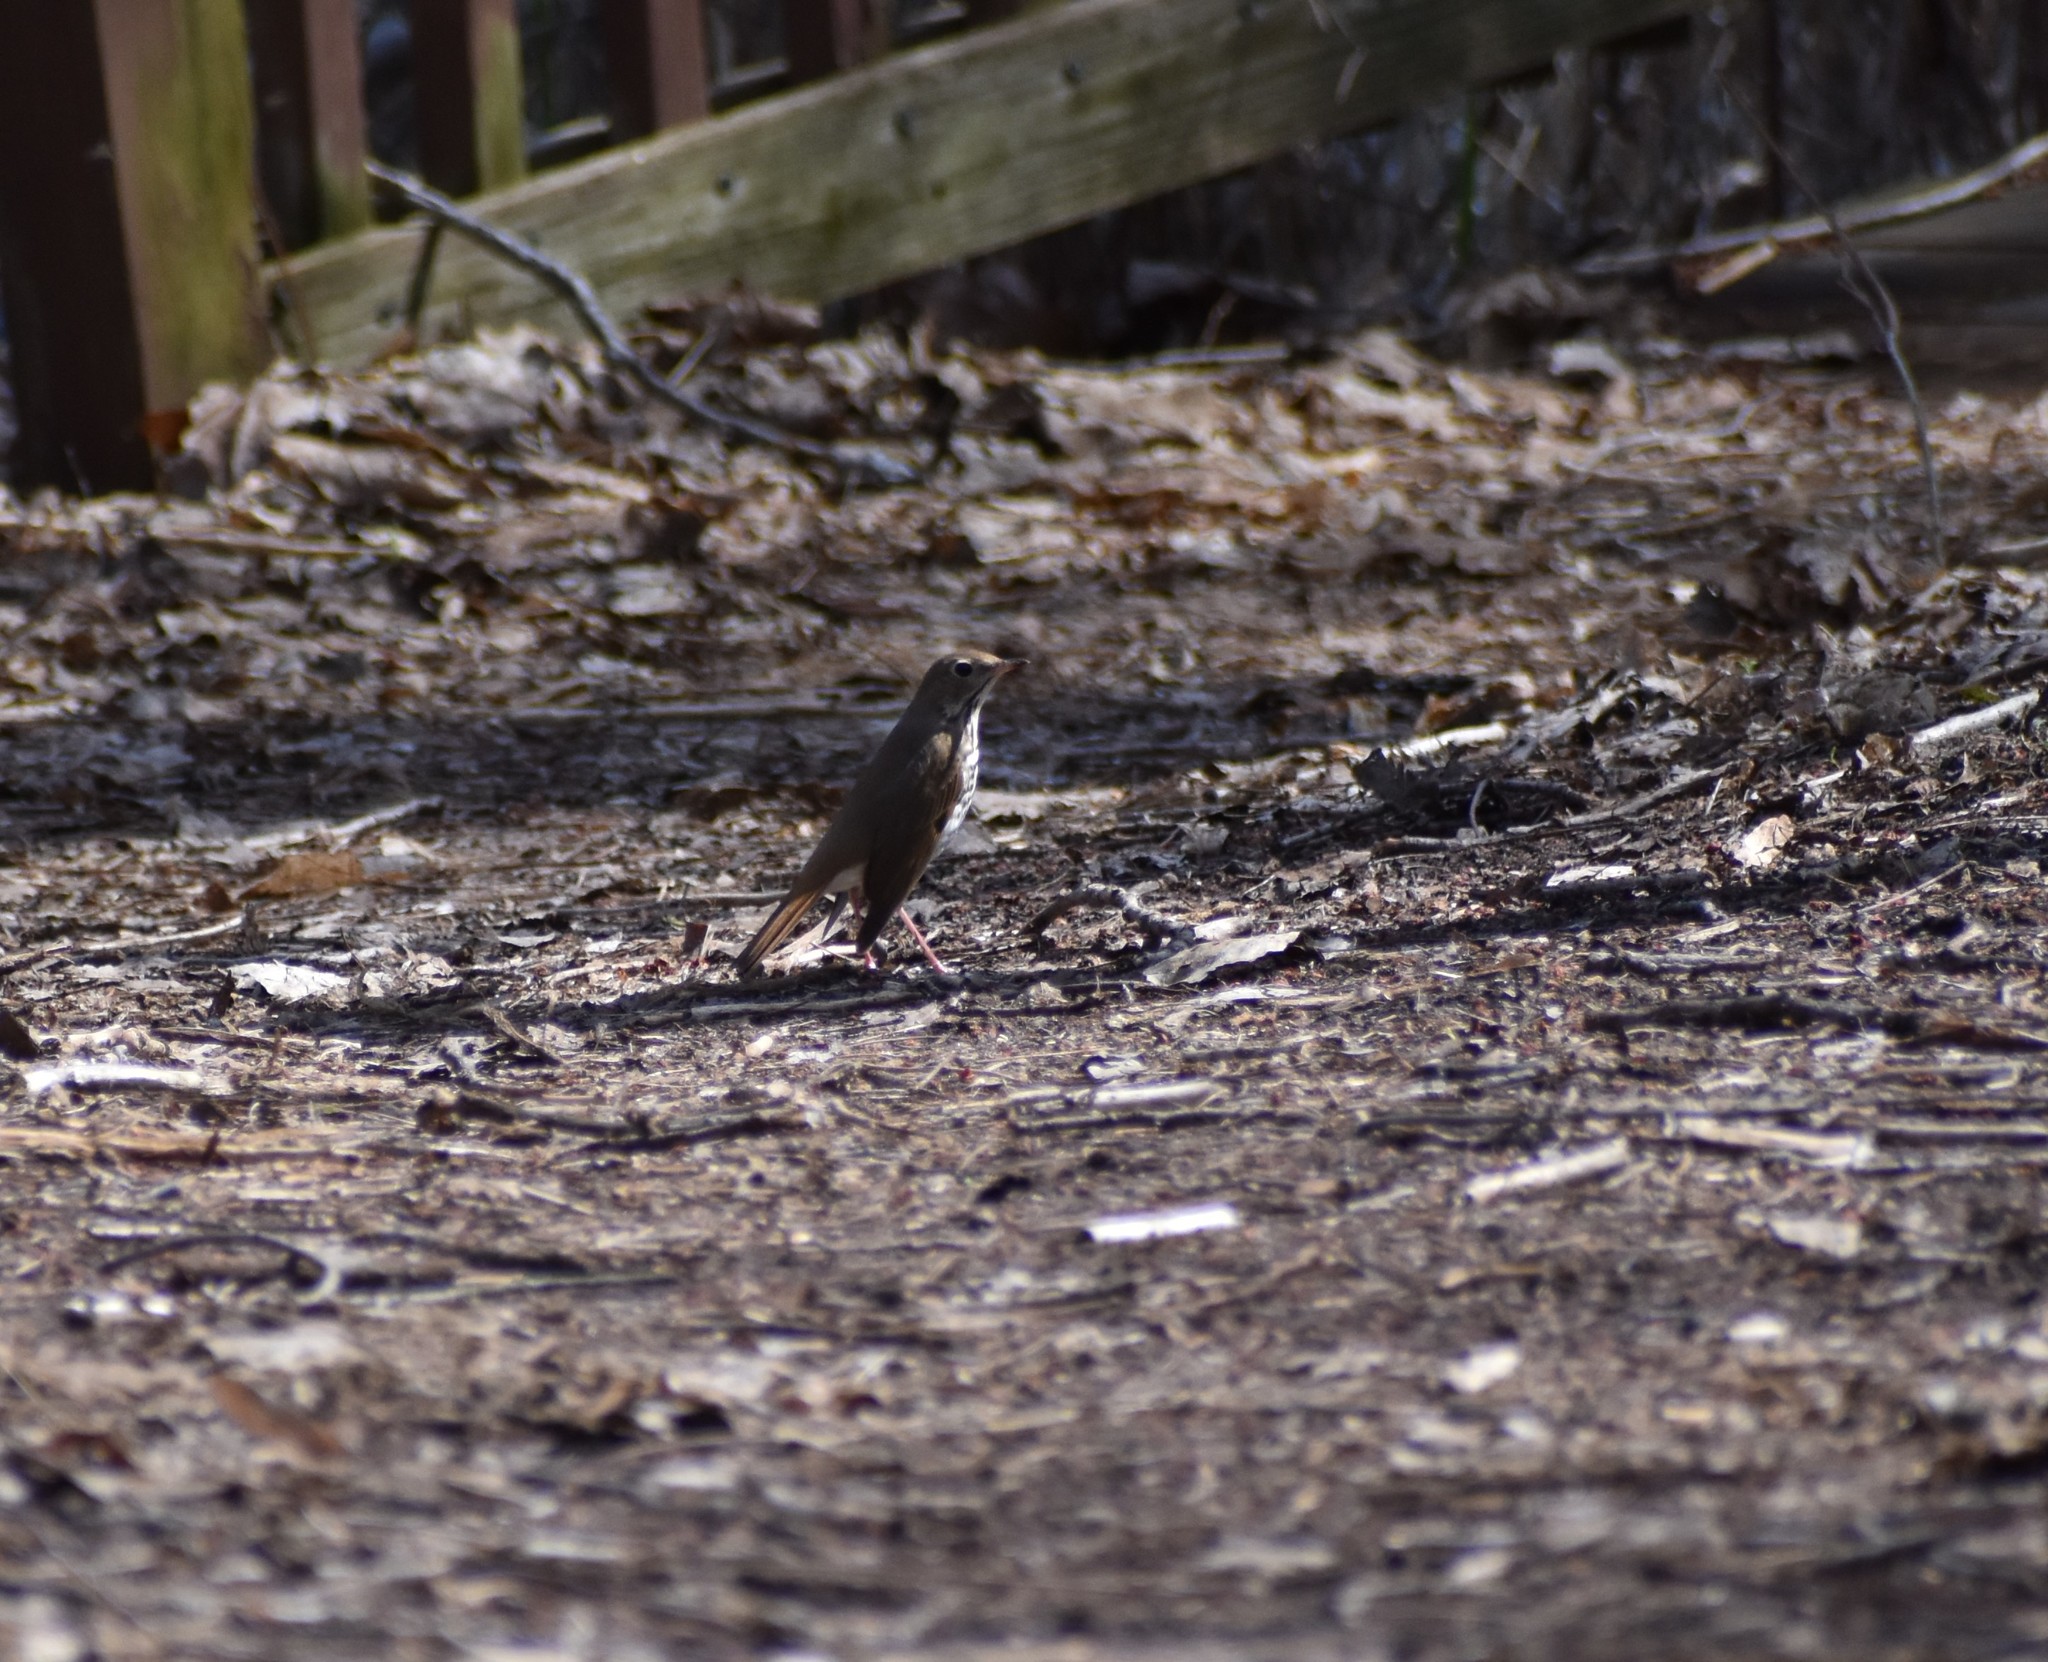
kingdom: Animalia
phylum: Chordata
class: Aves
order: Passeriformes
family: Turdidae
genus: Catharus
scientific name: Catharus guttatus
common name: Hermit thrush
